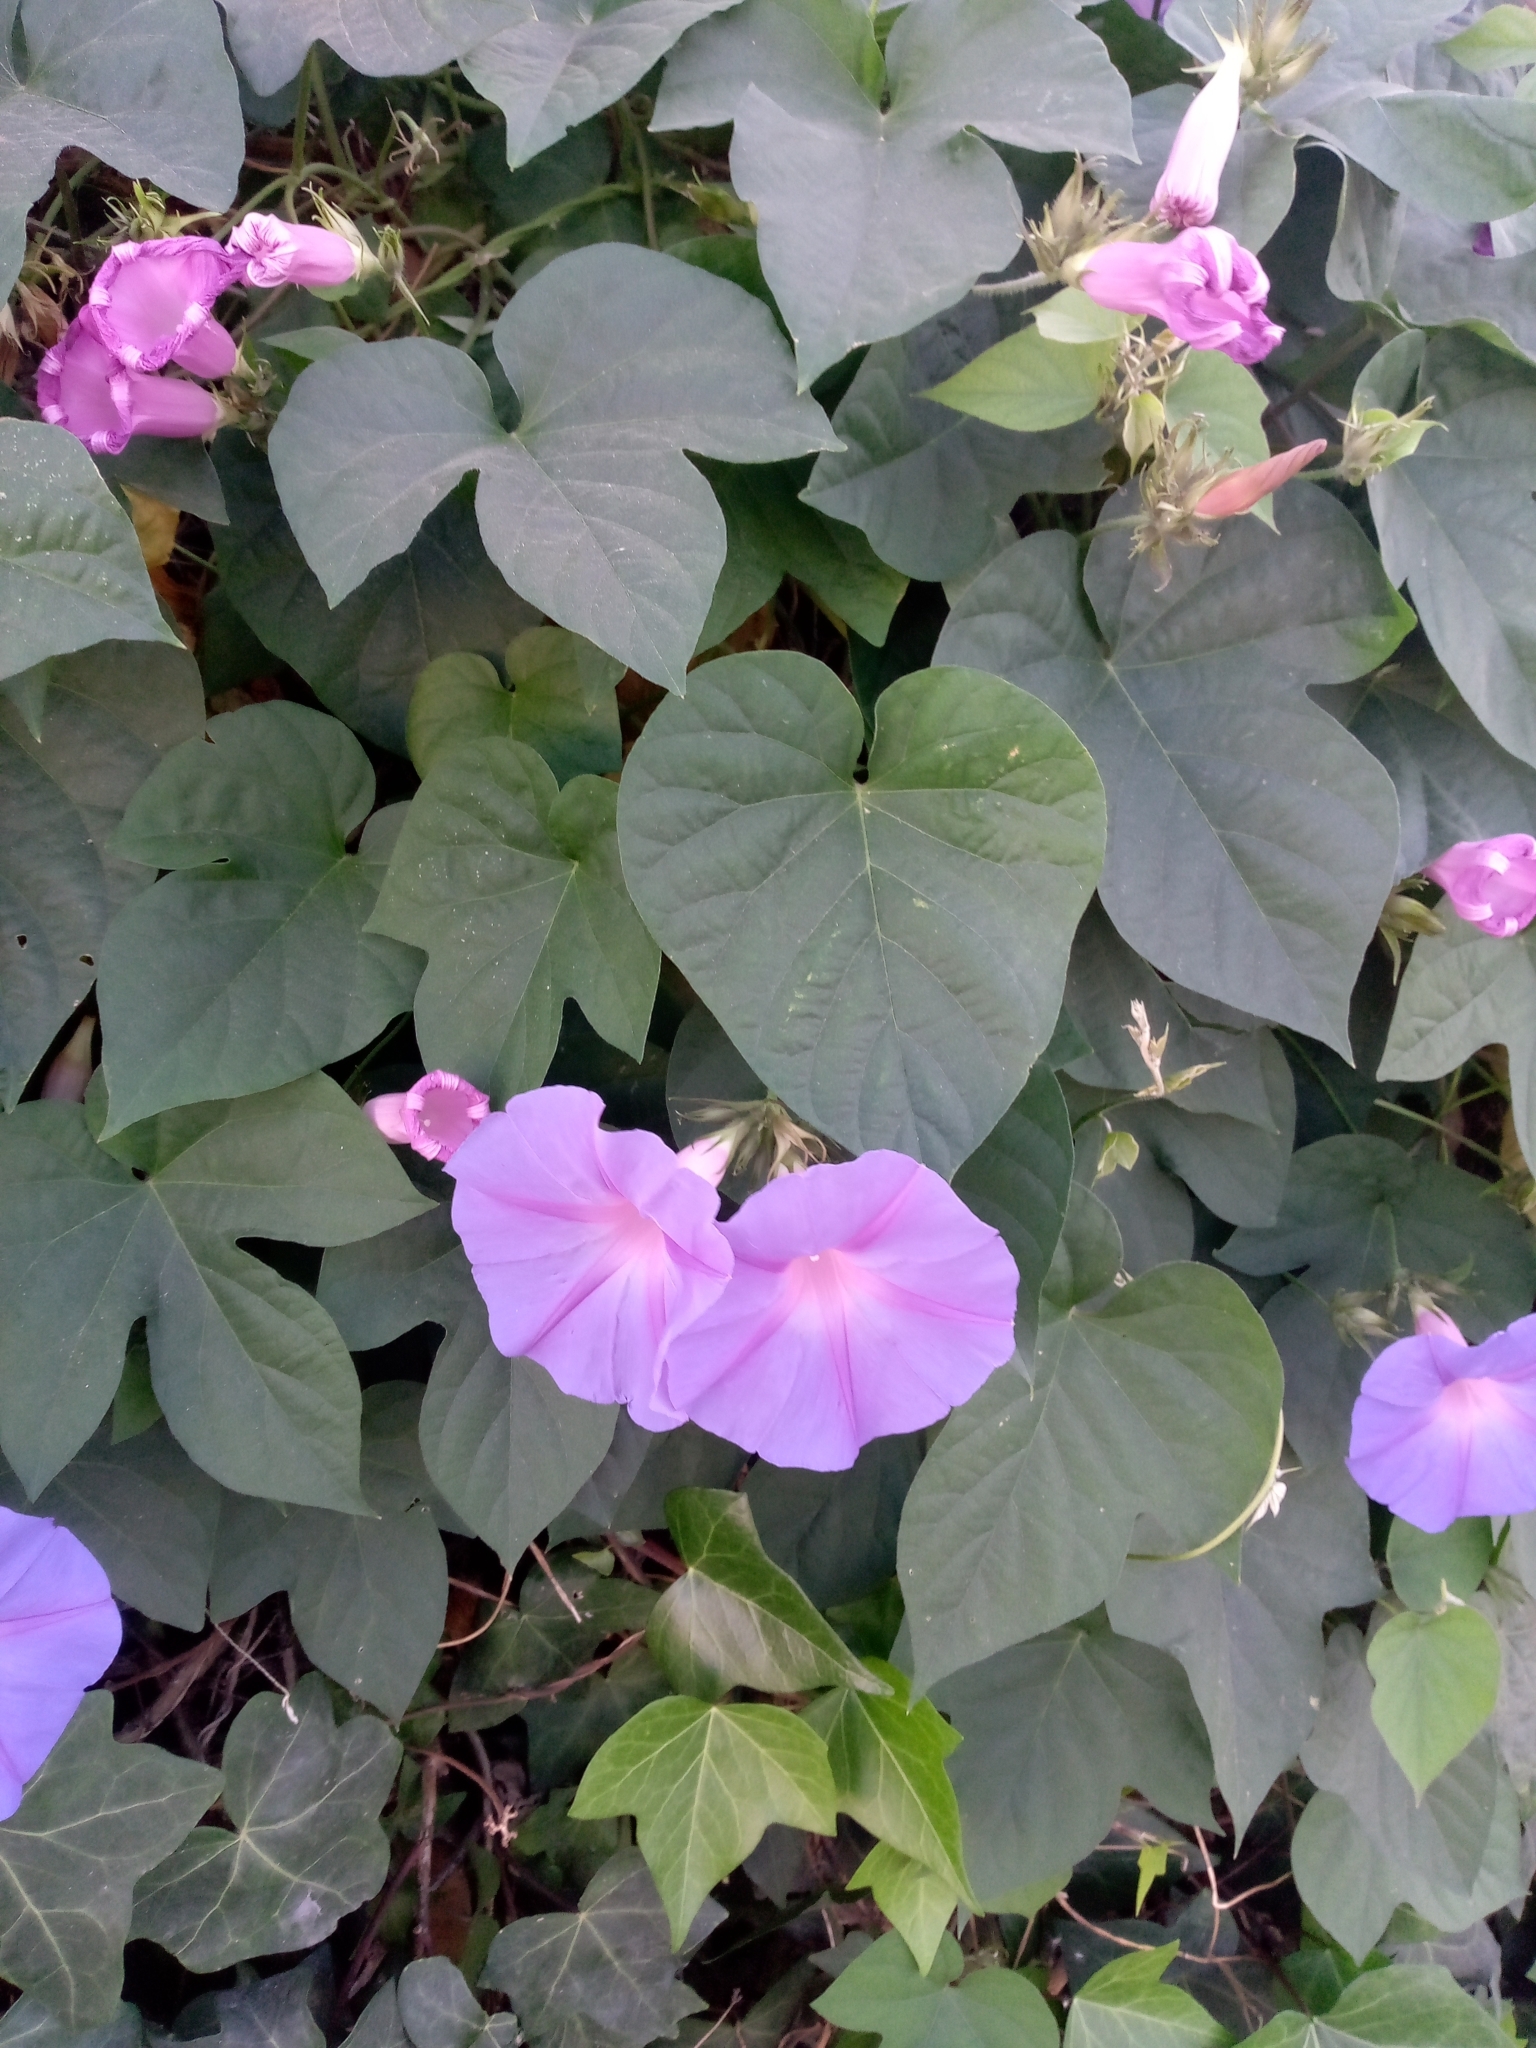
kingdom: Plantae
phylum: Tracheophyta
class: Magnoliopsida
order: Solanales
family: Convolvulaceae
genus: Ipomoea
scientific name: Ipomoea indica
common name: Blue dawnflower
